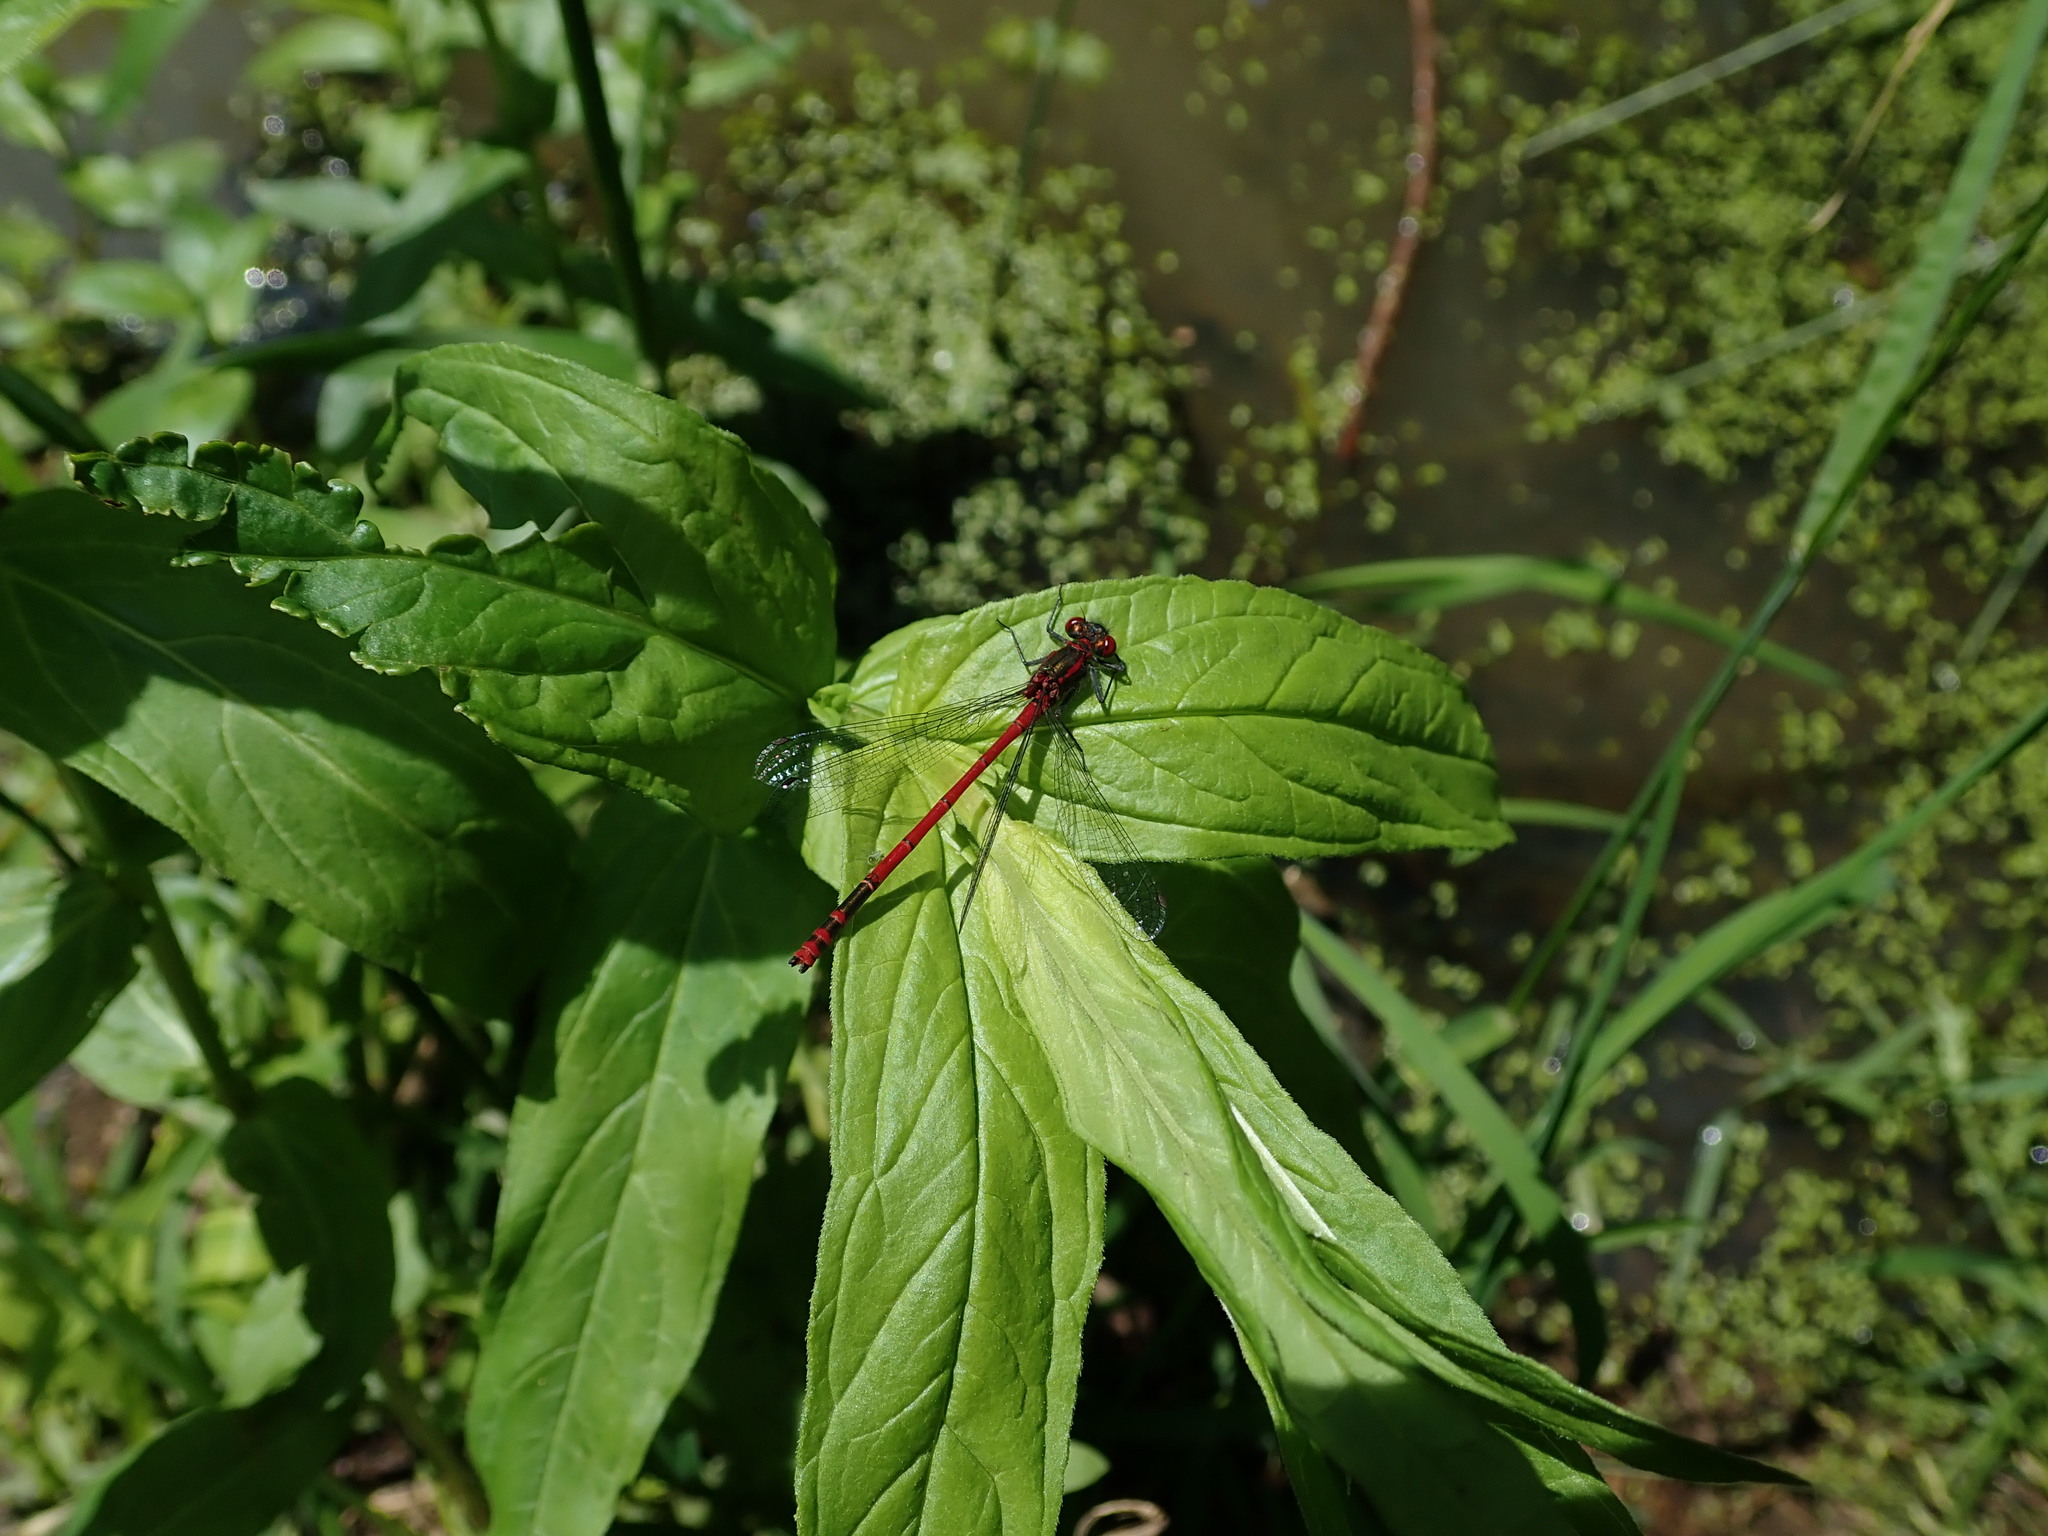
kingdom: Animalia
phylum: Arthropoda
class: Insecta
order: Odonata
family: Coenagrionidae
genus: Pyrrhosoma
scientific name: Pyrrhosoma nymphula
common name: Large red damsel
